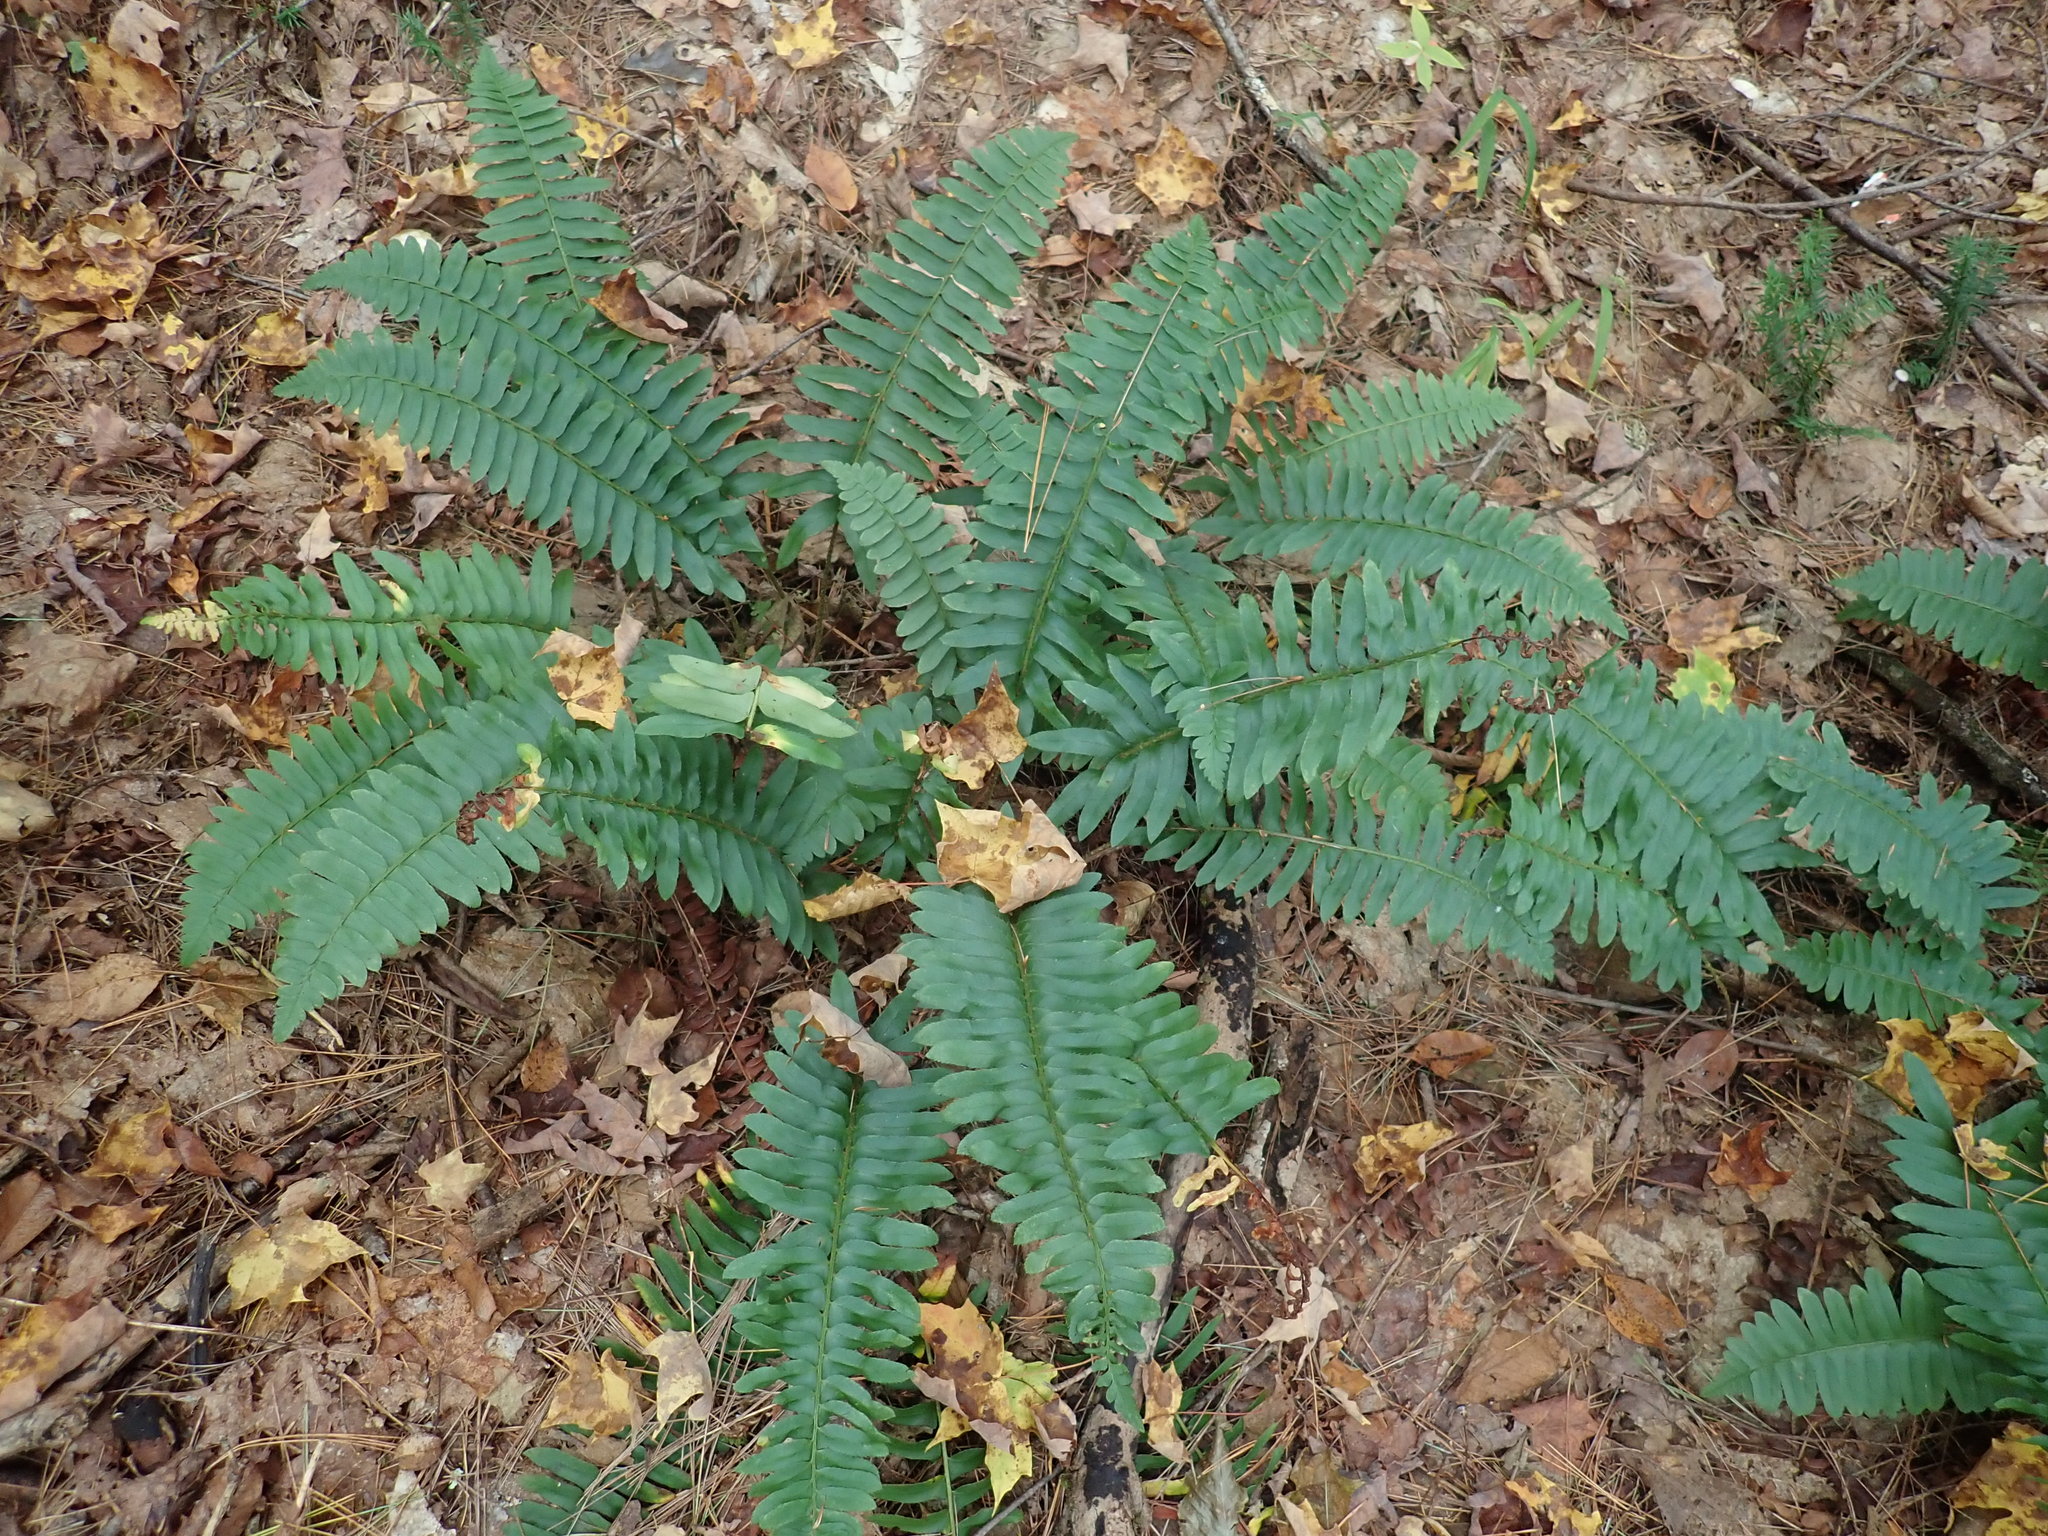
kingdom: Plantae
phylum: Tracheophyta
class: Polypodiopsida
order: Polypodiales
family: Dryopteridaceae
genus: Polystichum
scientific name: Polystichum acrostichoides
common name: Christmas fern
